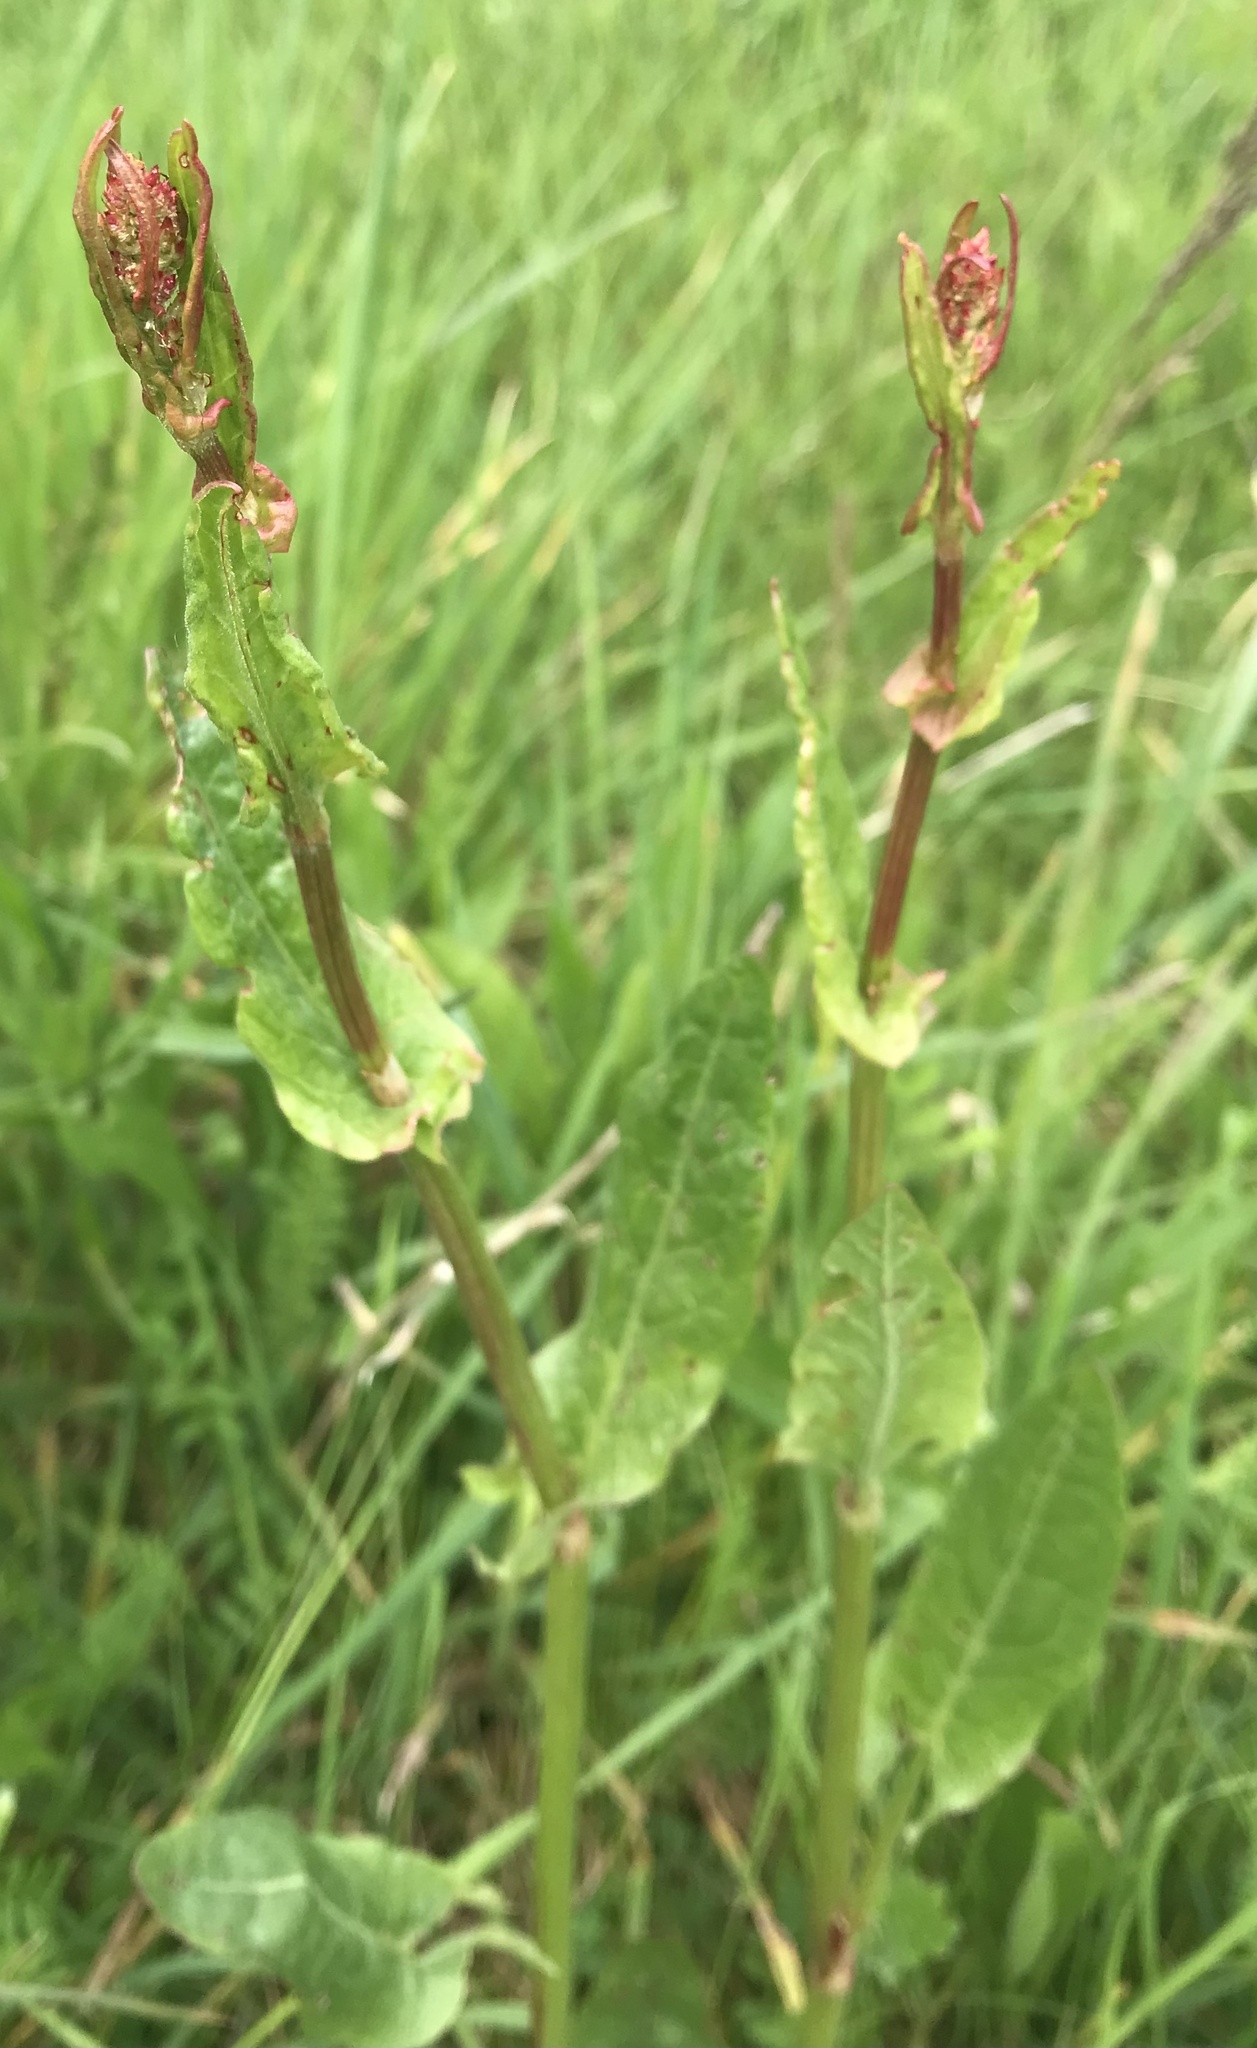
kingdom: Plantae
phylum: Tracheophyta
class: Magnoliopsida
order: Caryophyllales
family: Polygonaceae
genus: Rumex
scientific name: Rumex acetosa
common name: Garden sorrel
